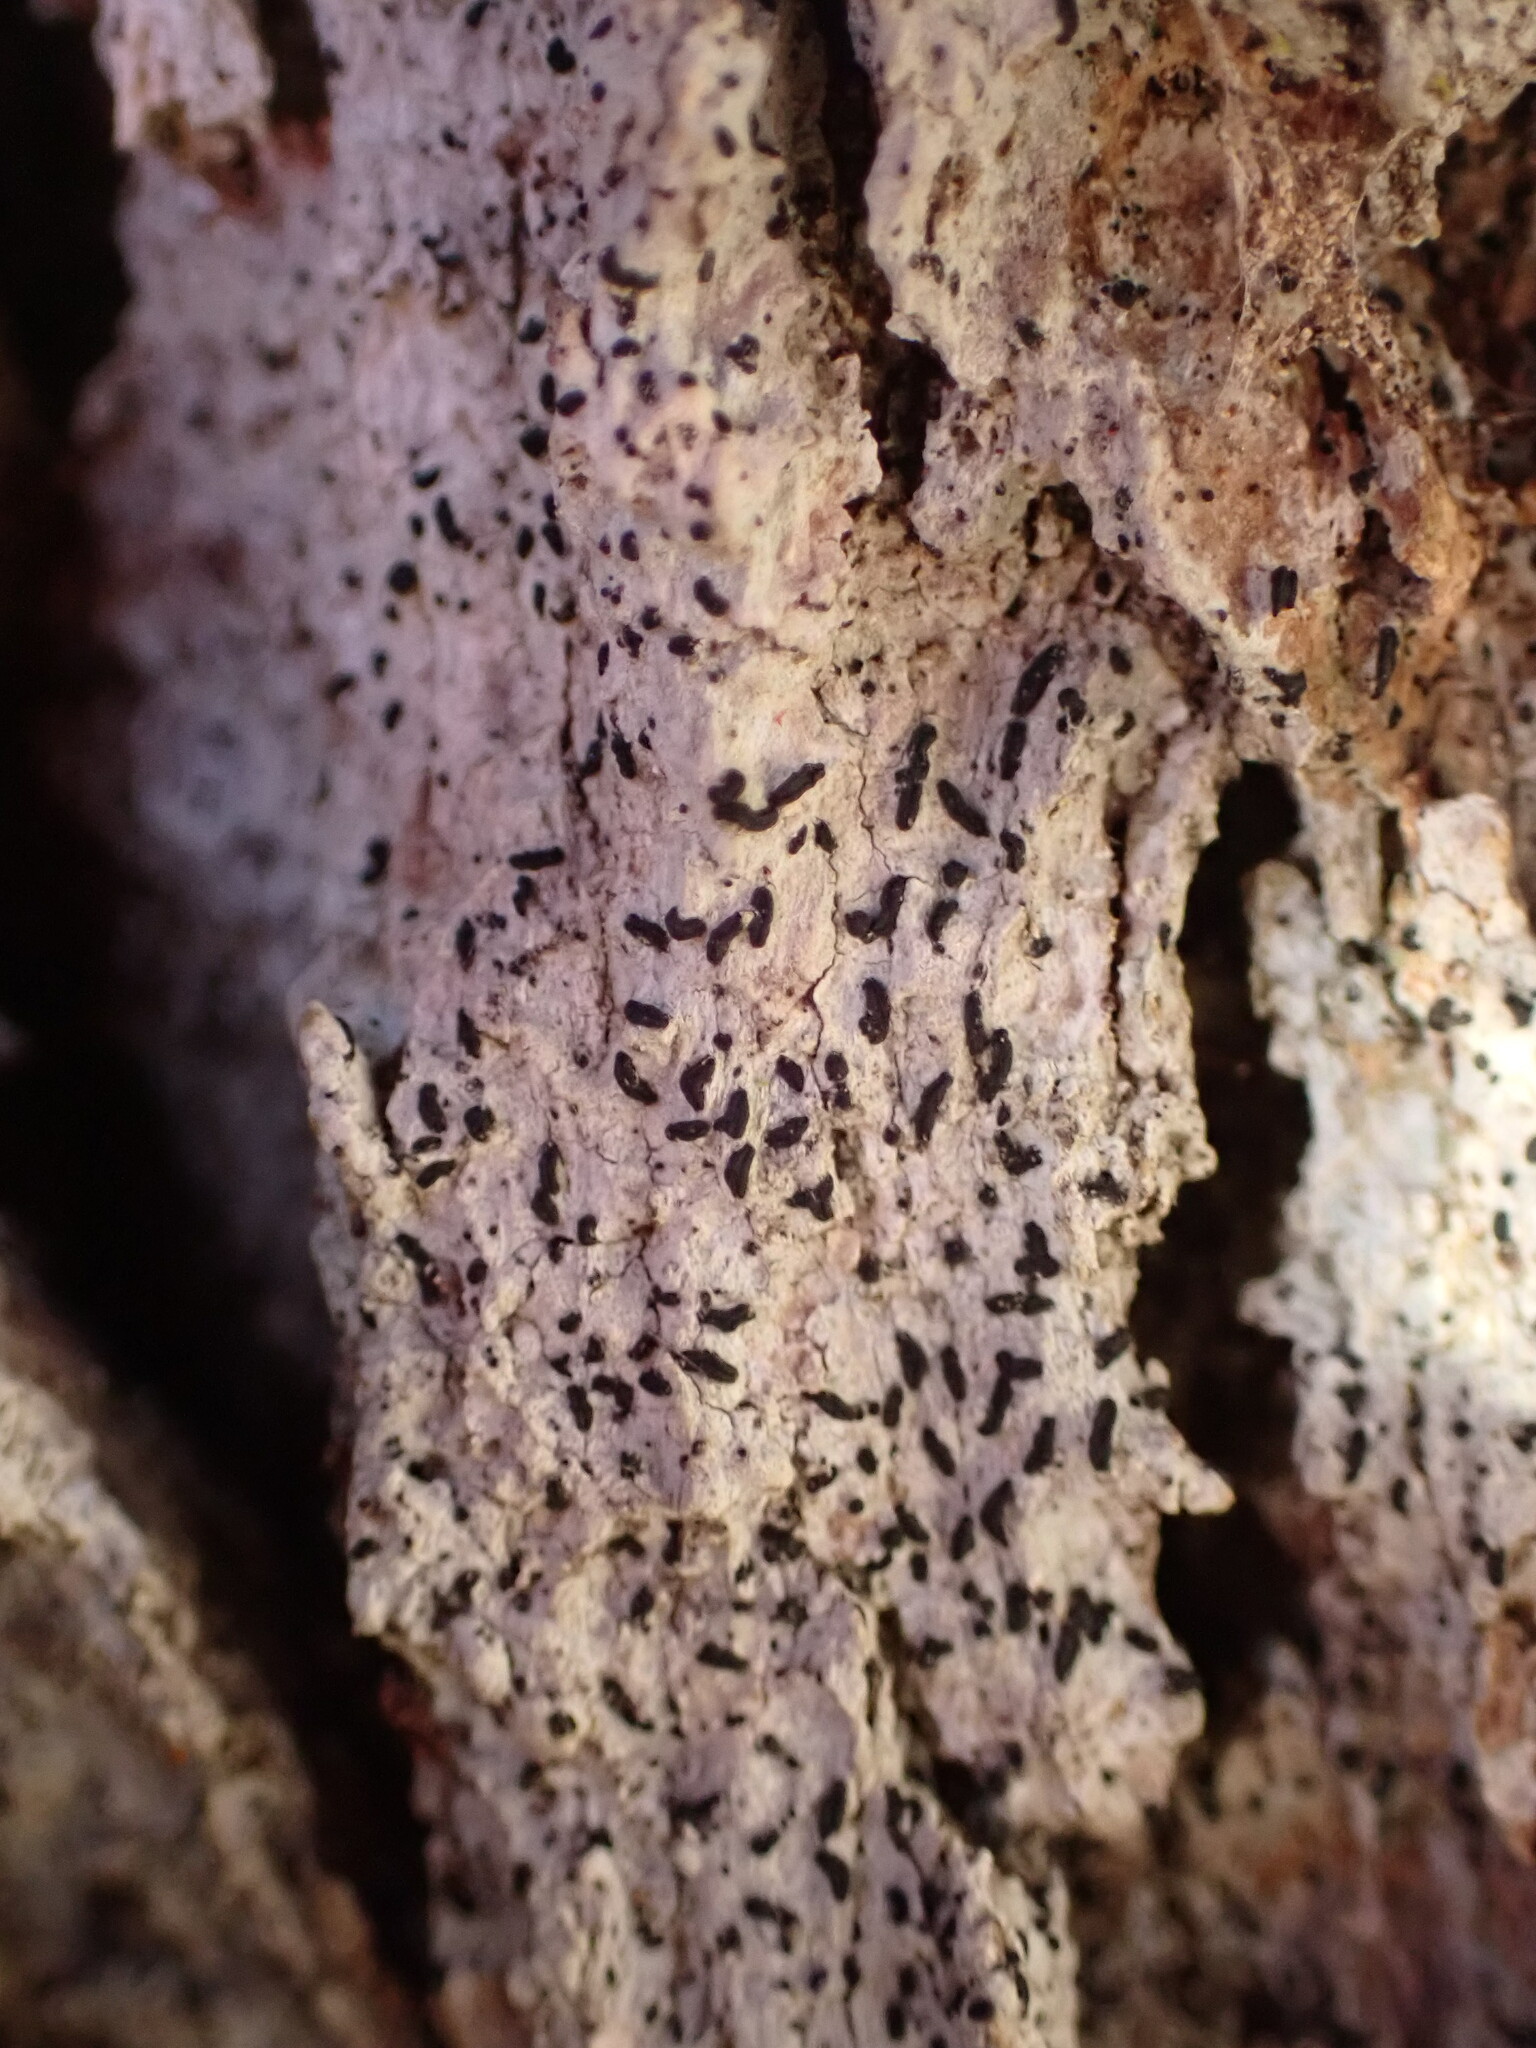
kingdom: Fungi
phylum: Ascomycota
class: Arthoniomycetes
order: Arthoniales
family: Lecanographaceae
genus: Alyxoria
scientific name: Alyxoria varia
